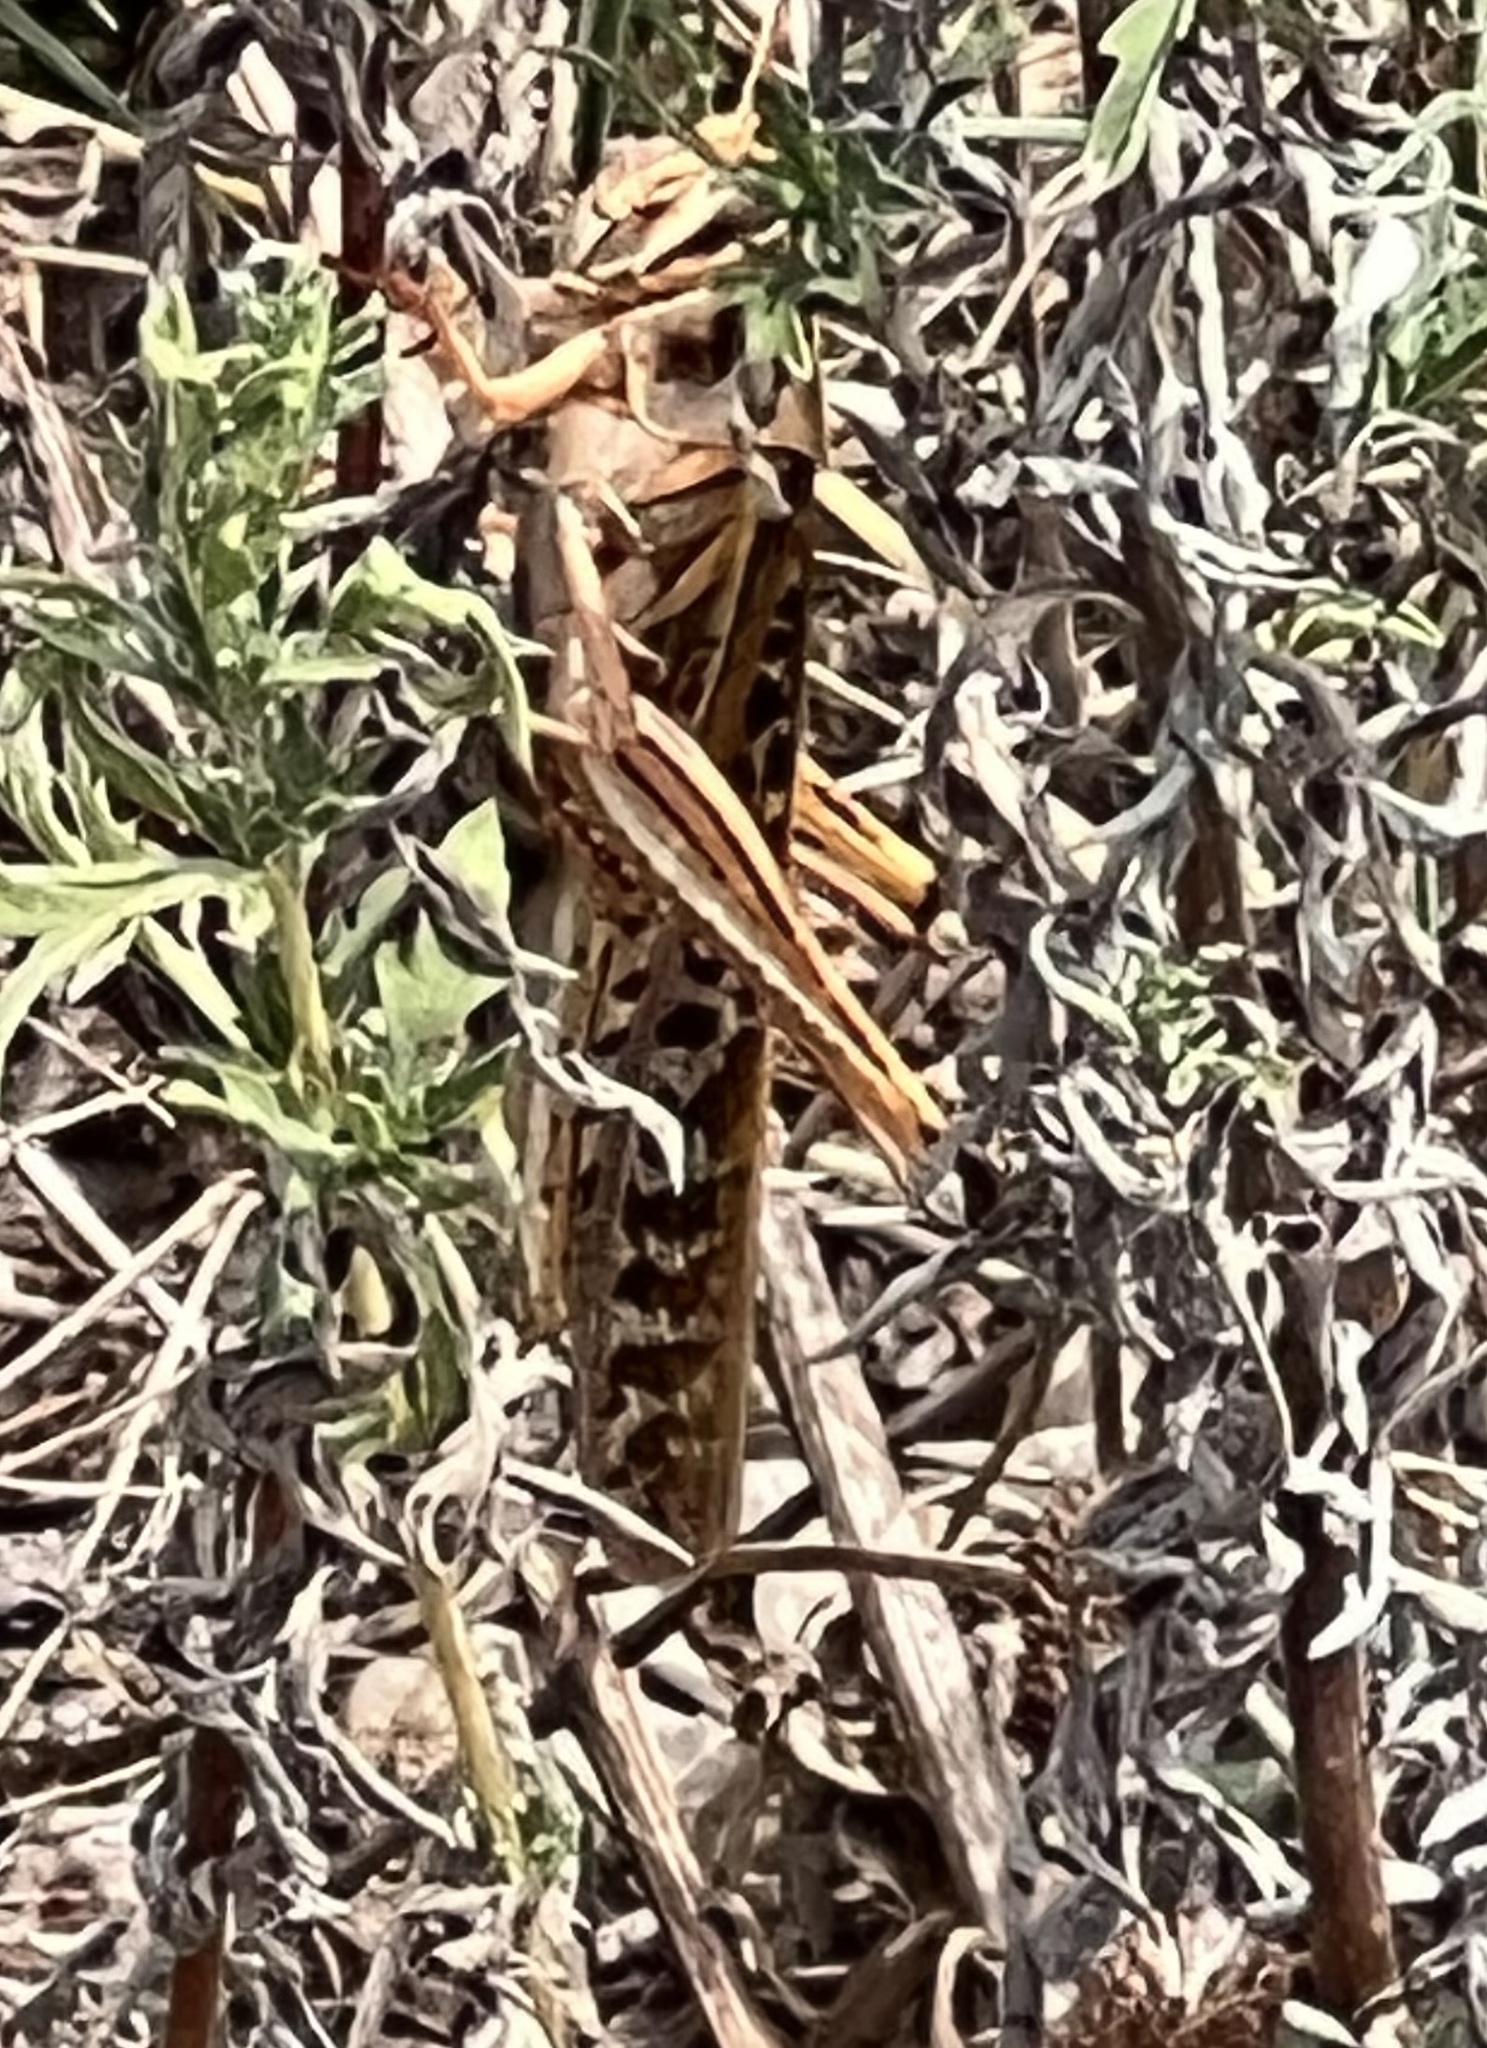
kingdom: Animalia
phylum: Arthropoda
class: Insecta
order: Orthoptera
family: Acrididae
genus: Schistocerca
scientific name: Schistocerca americana
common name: American bird locust
